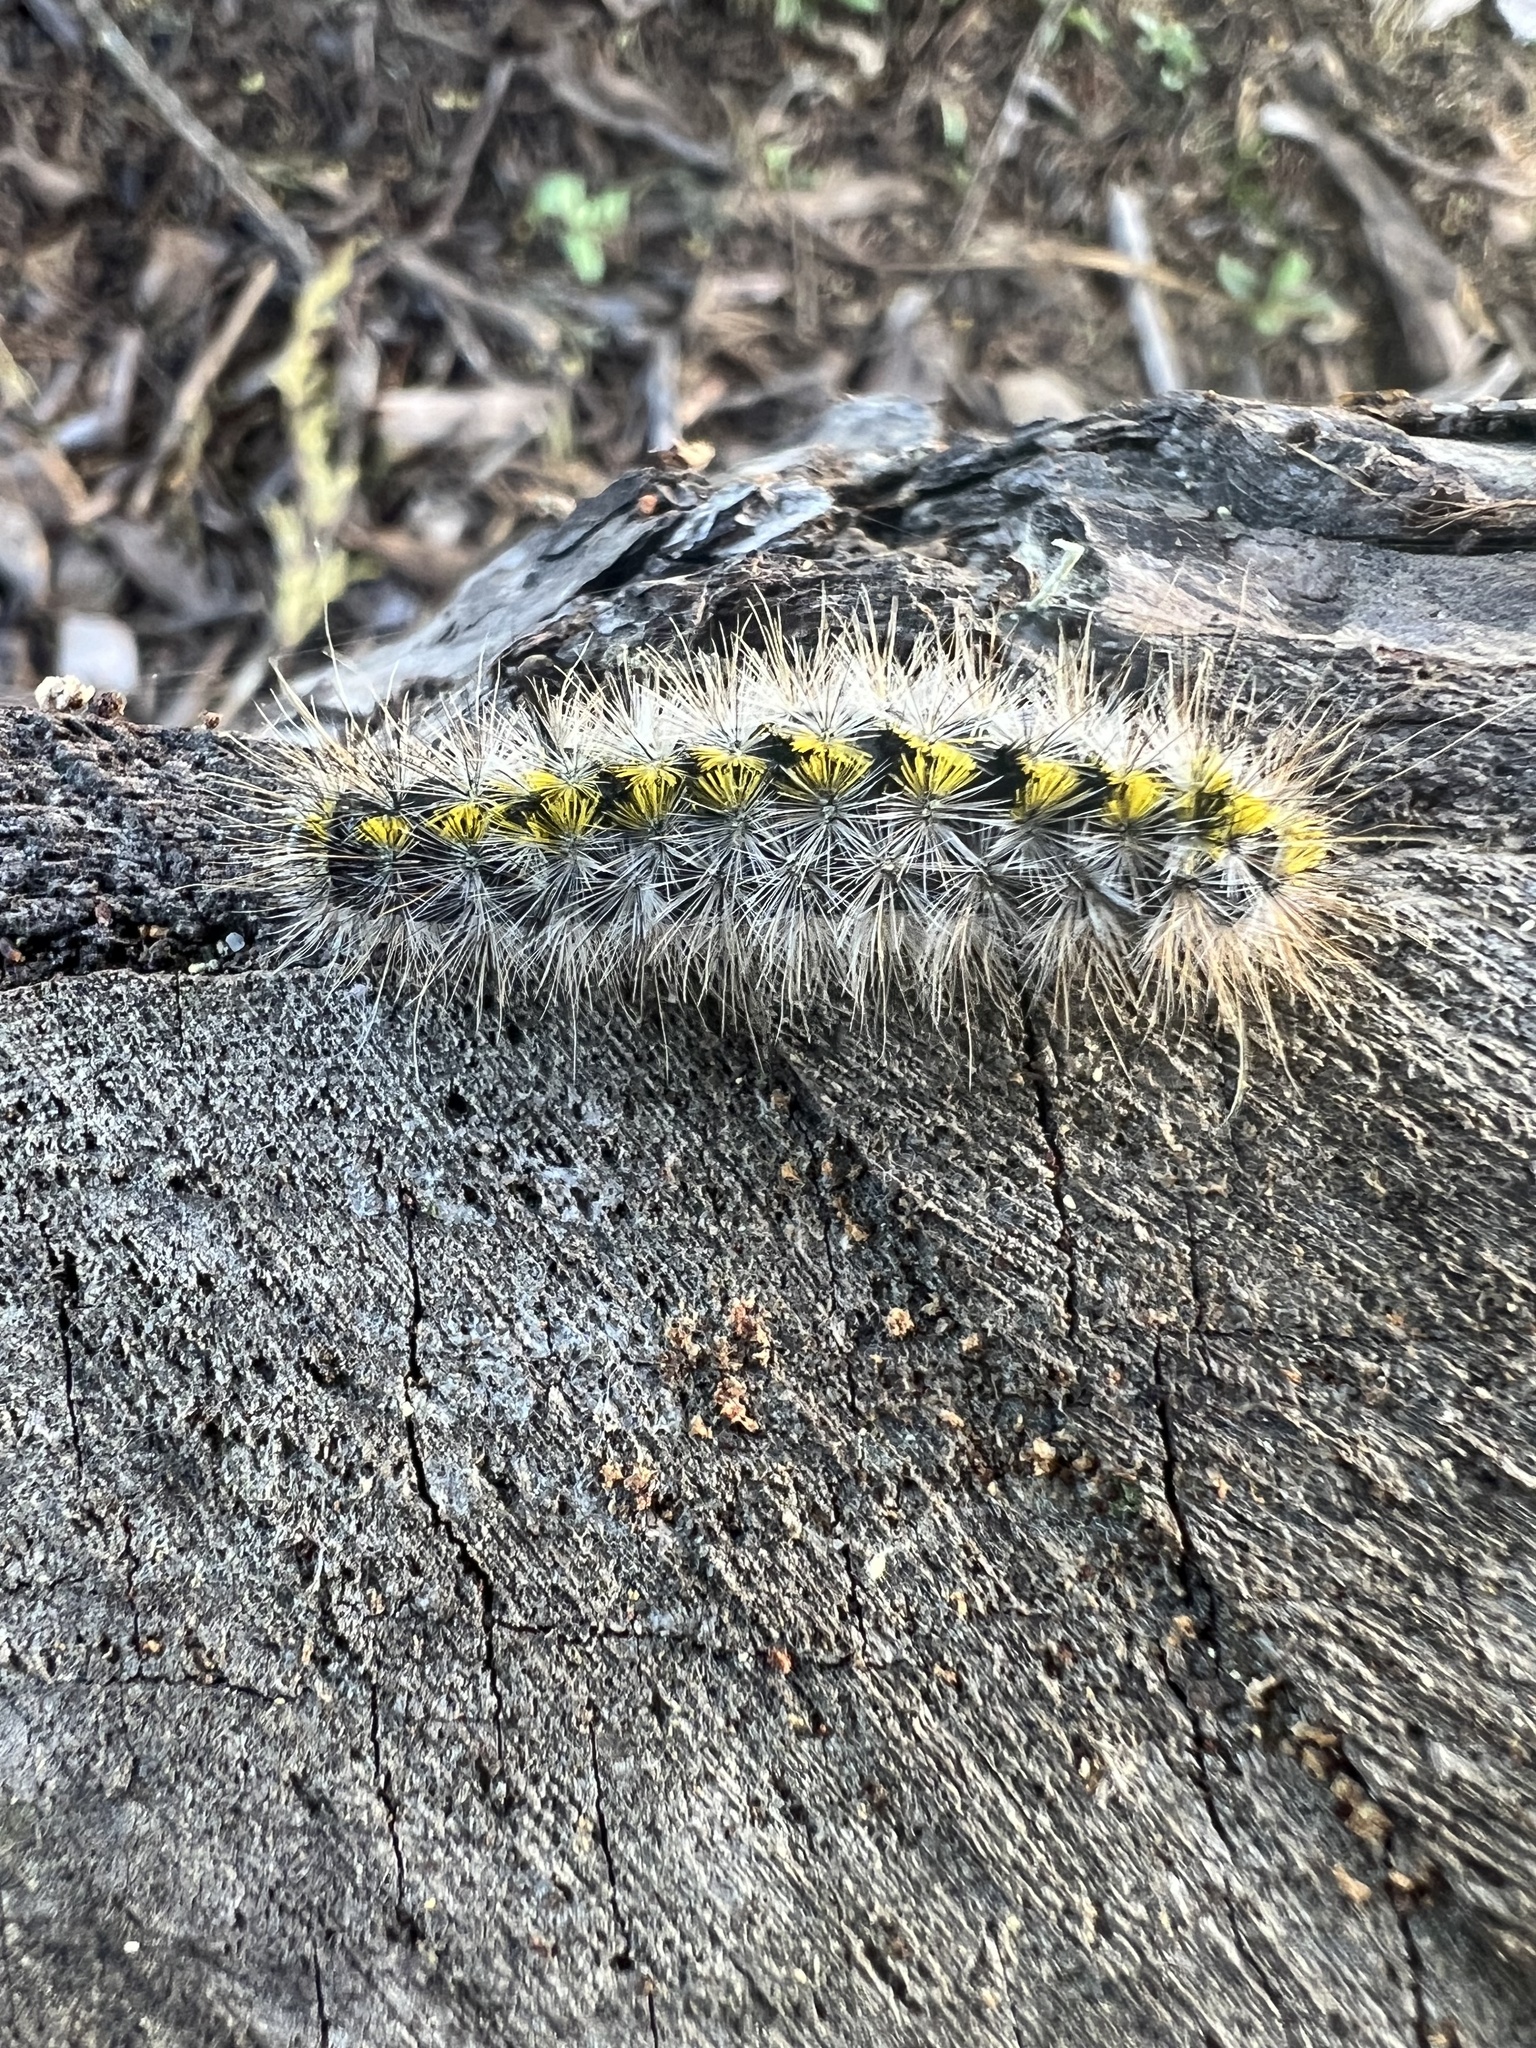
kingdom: Animalia
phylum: Arthropoda
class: Insecta
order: Lepidoptera
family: Erebidae
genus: Lophocampa
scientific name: Lophocampa argentata
